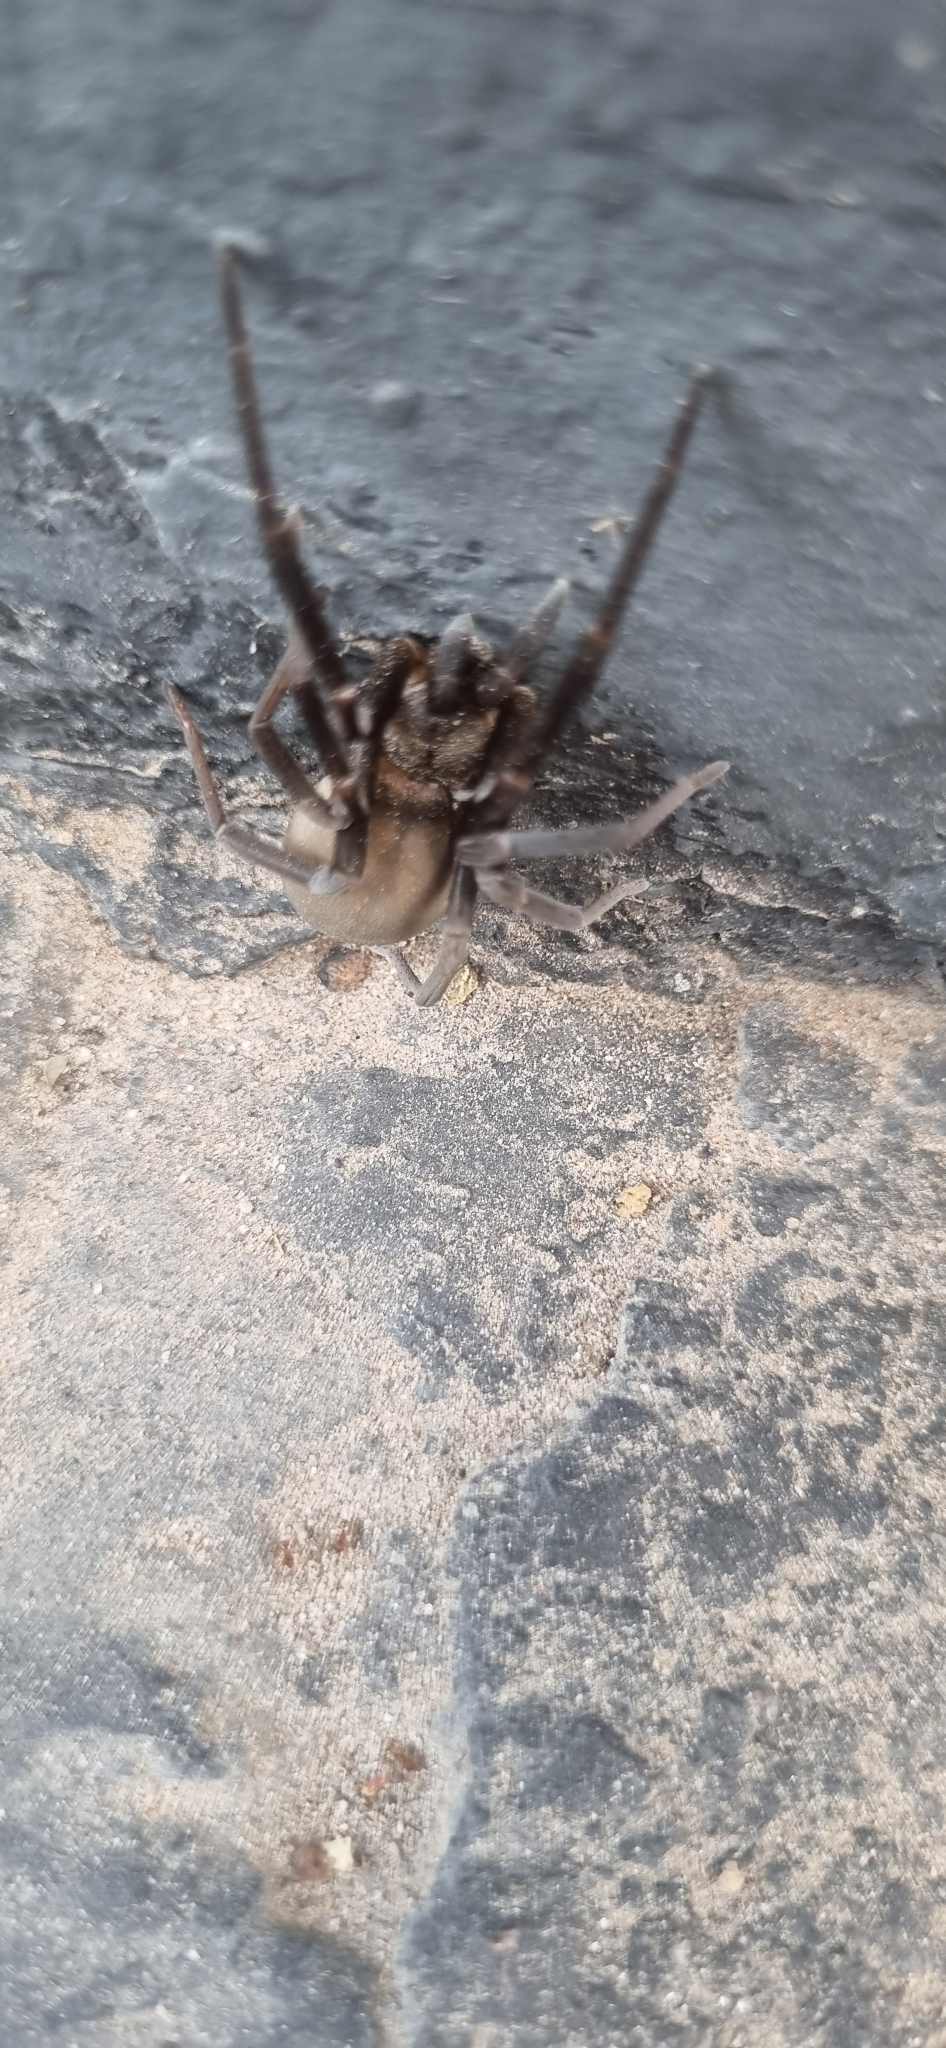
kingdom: Animalia
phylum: Arthropoda
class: Arachnida
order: Araneae
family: Filistatidae
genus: Kukulcania
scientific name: Kukulcania hibernalis
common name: Crevice weaver
